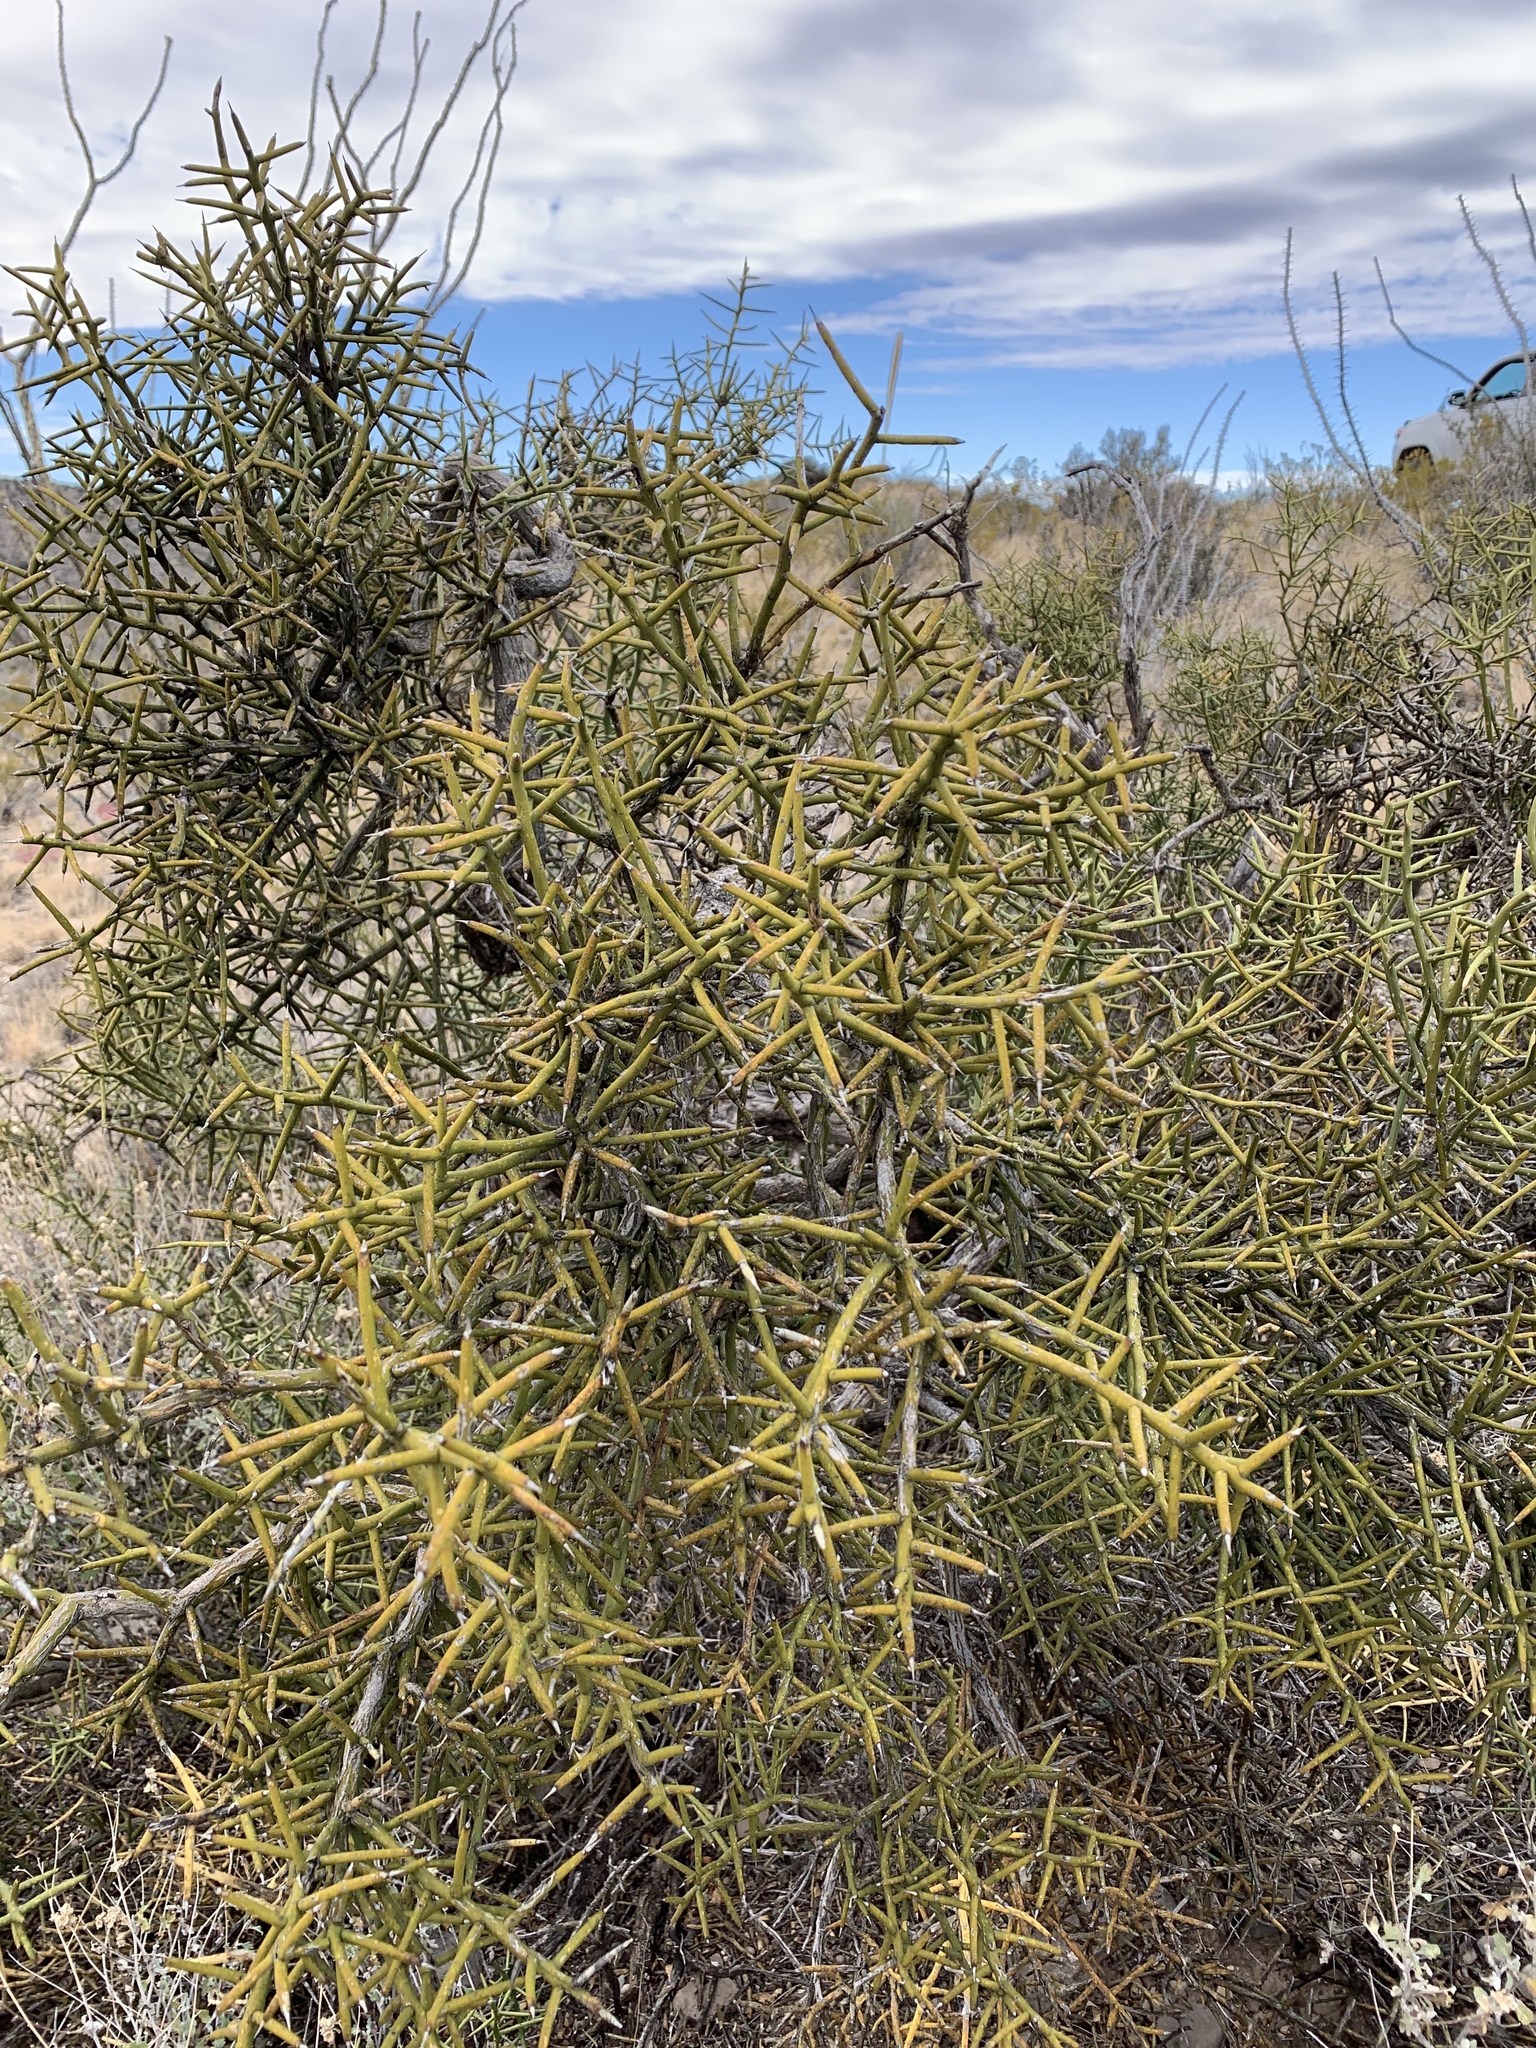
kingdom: Plantae
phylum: Tracheophyta
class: Magnoliopsida
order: Brassicales
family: Koeberliniaceae
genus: Koeberlinia
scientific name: Koeberlinia spinosa
